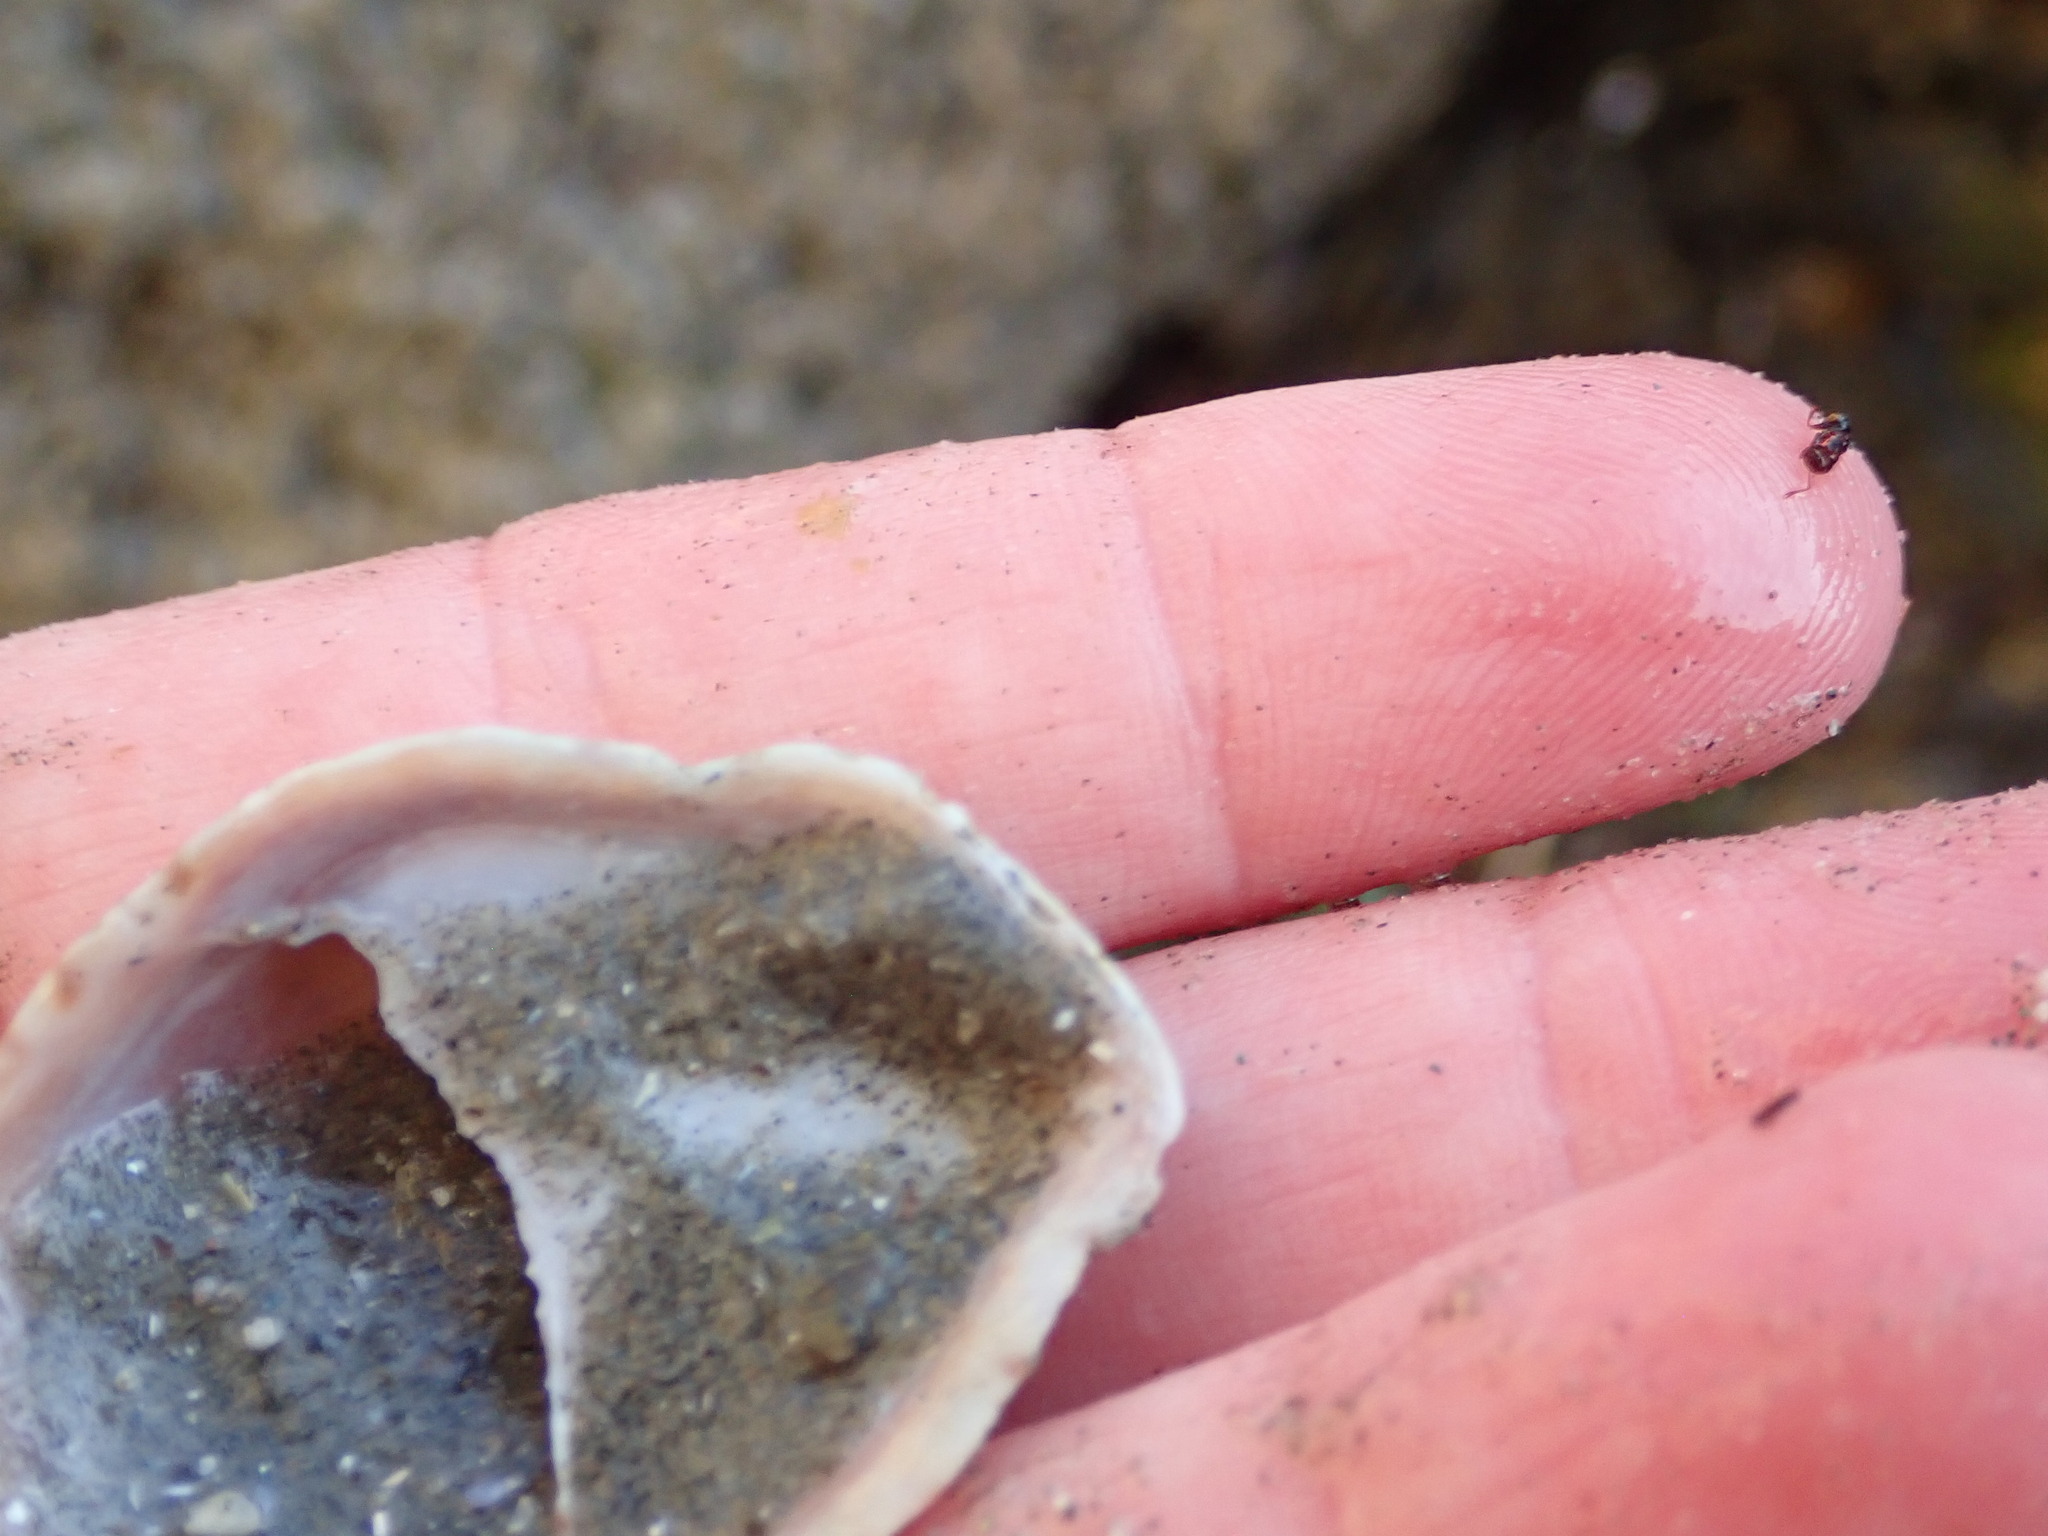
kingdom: Animalia
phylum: Mollusca
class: Gastropoda
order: Littorinimorpha
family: Calyptraeidae
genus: Crepidula
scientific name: Crepidula fornicata
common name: Slipper limpet
